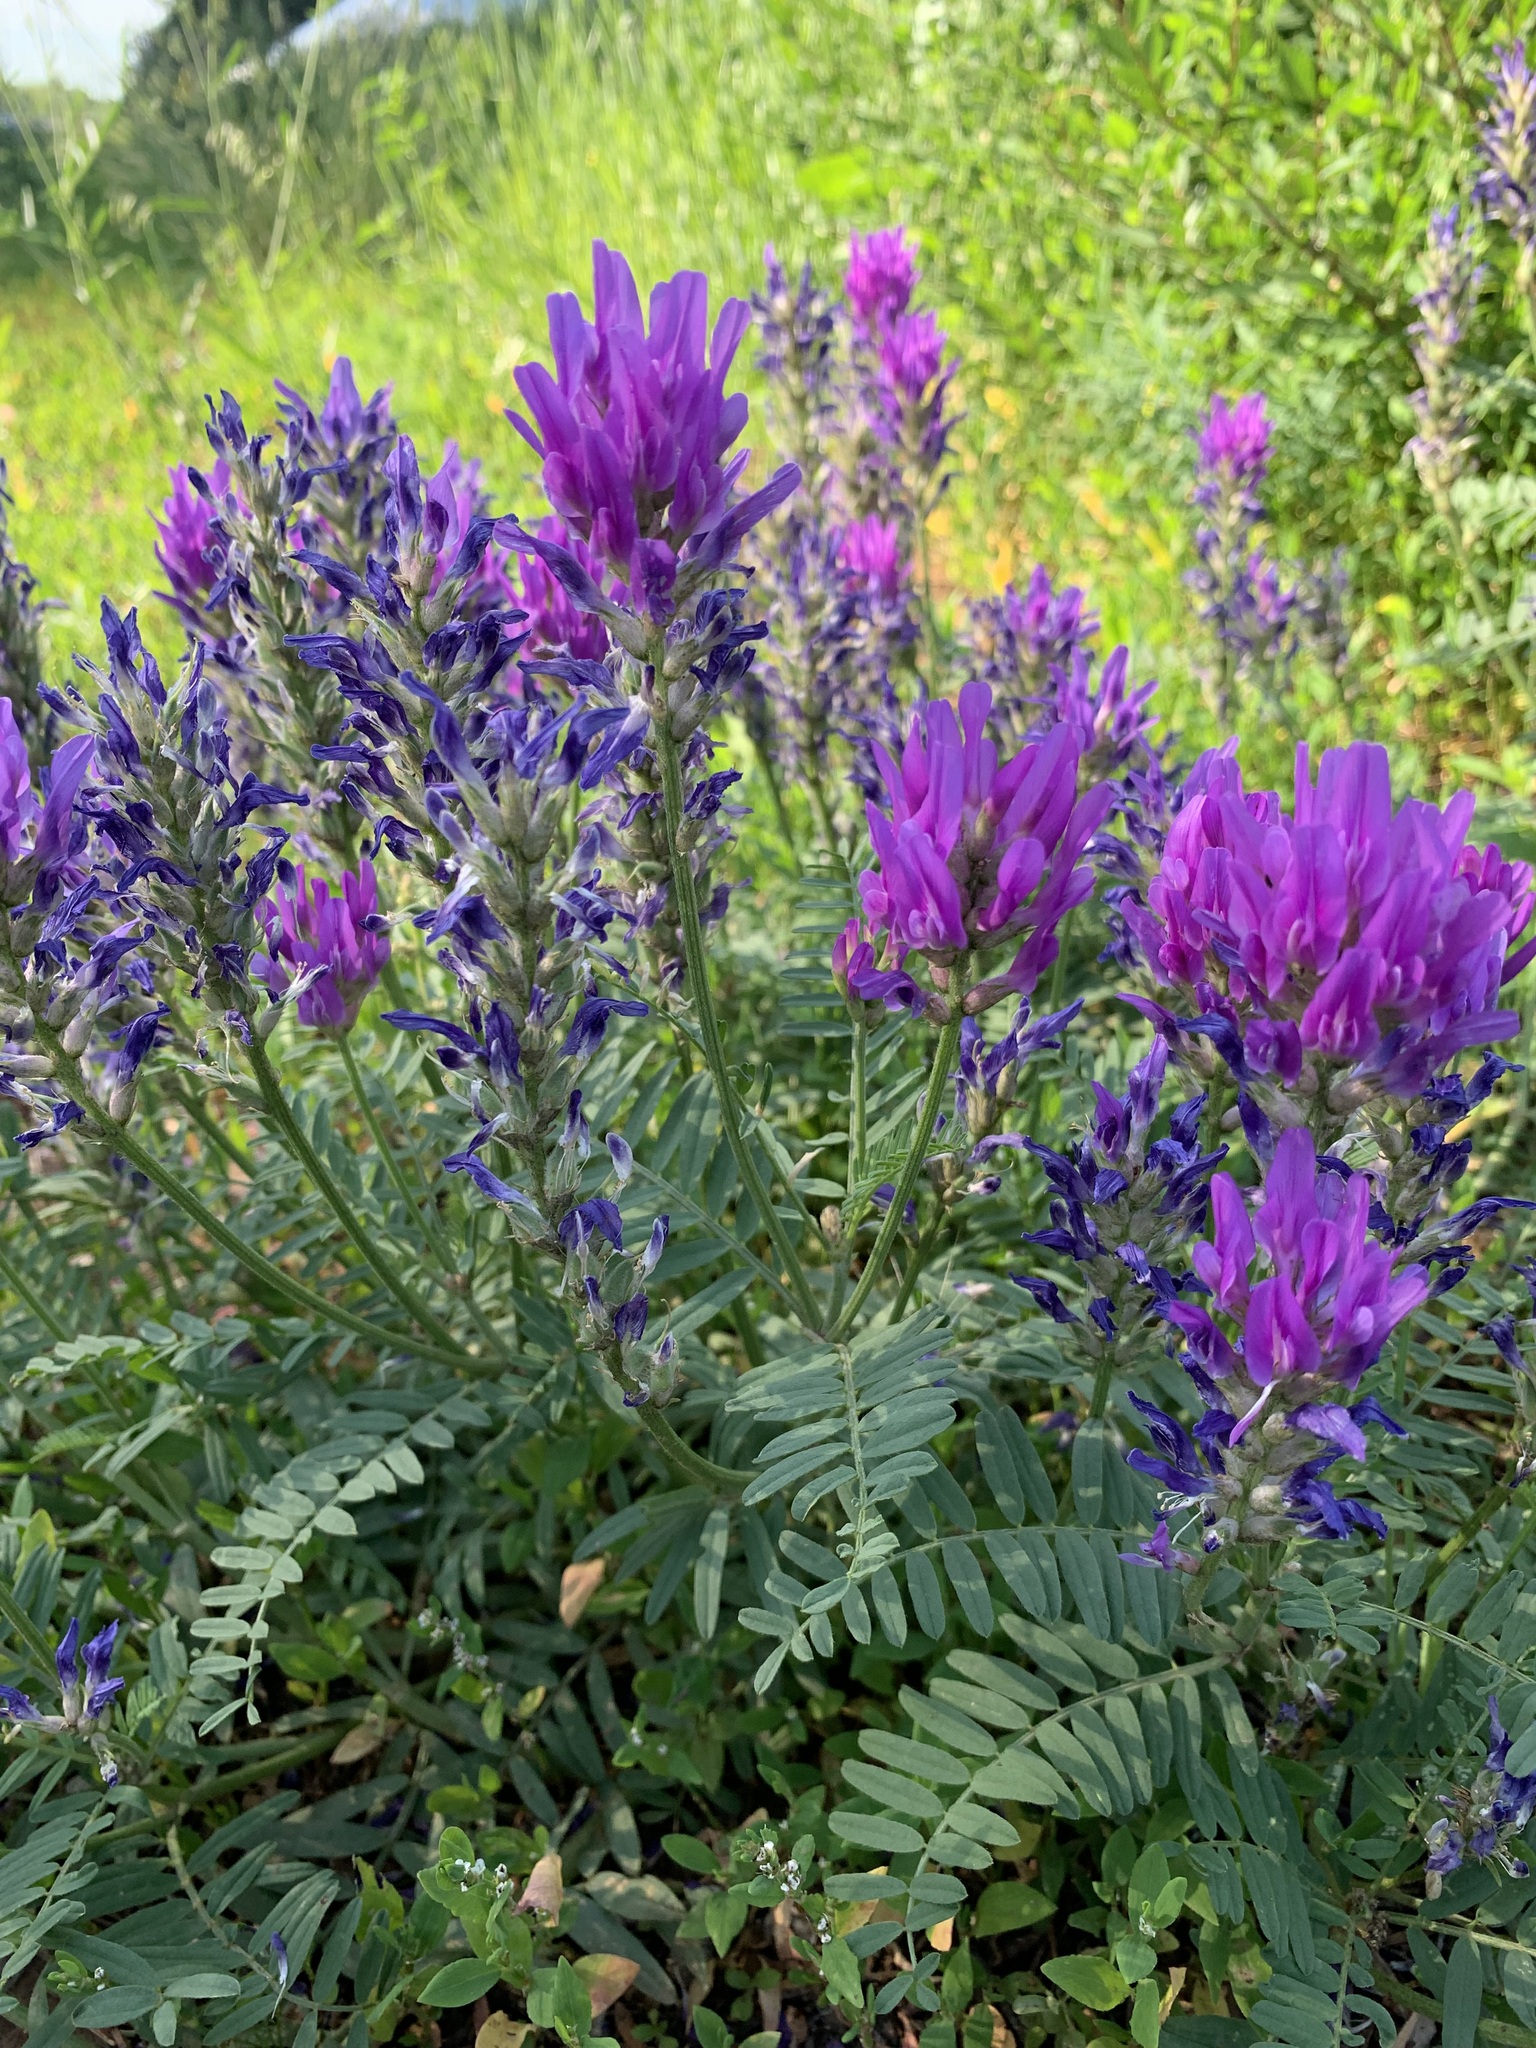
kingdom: Plantae
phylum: Tracheophyta
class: Magnoliopsida
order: Fabales
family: Fabaceae
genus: Astragalus
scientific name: Astragalus onobrychis
